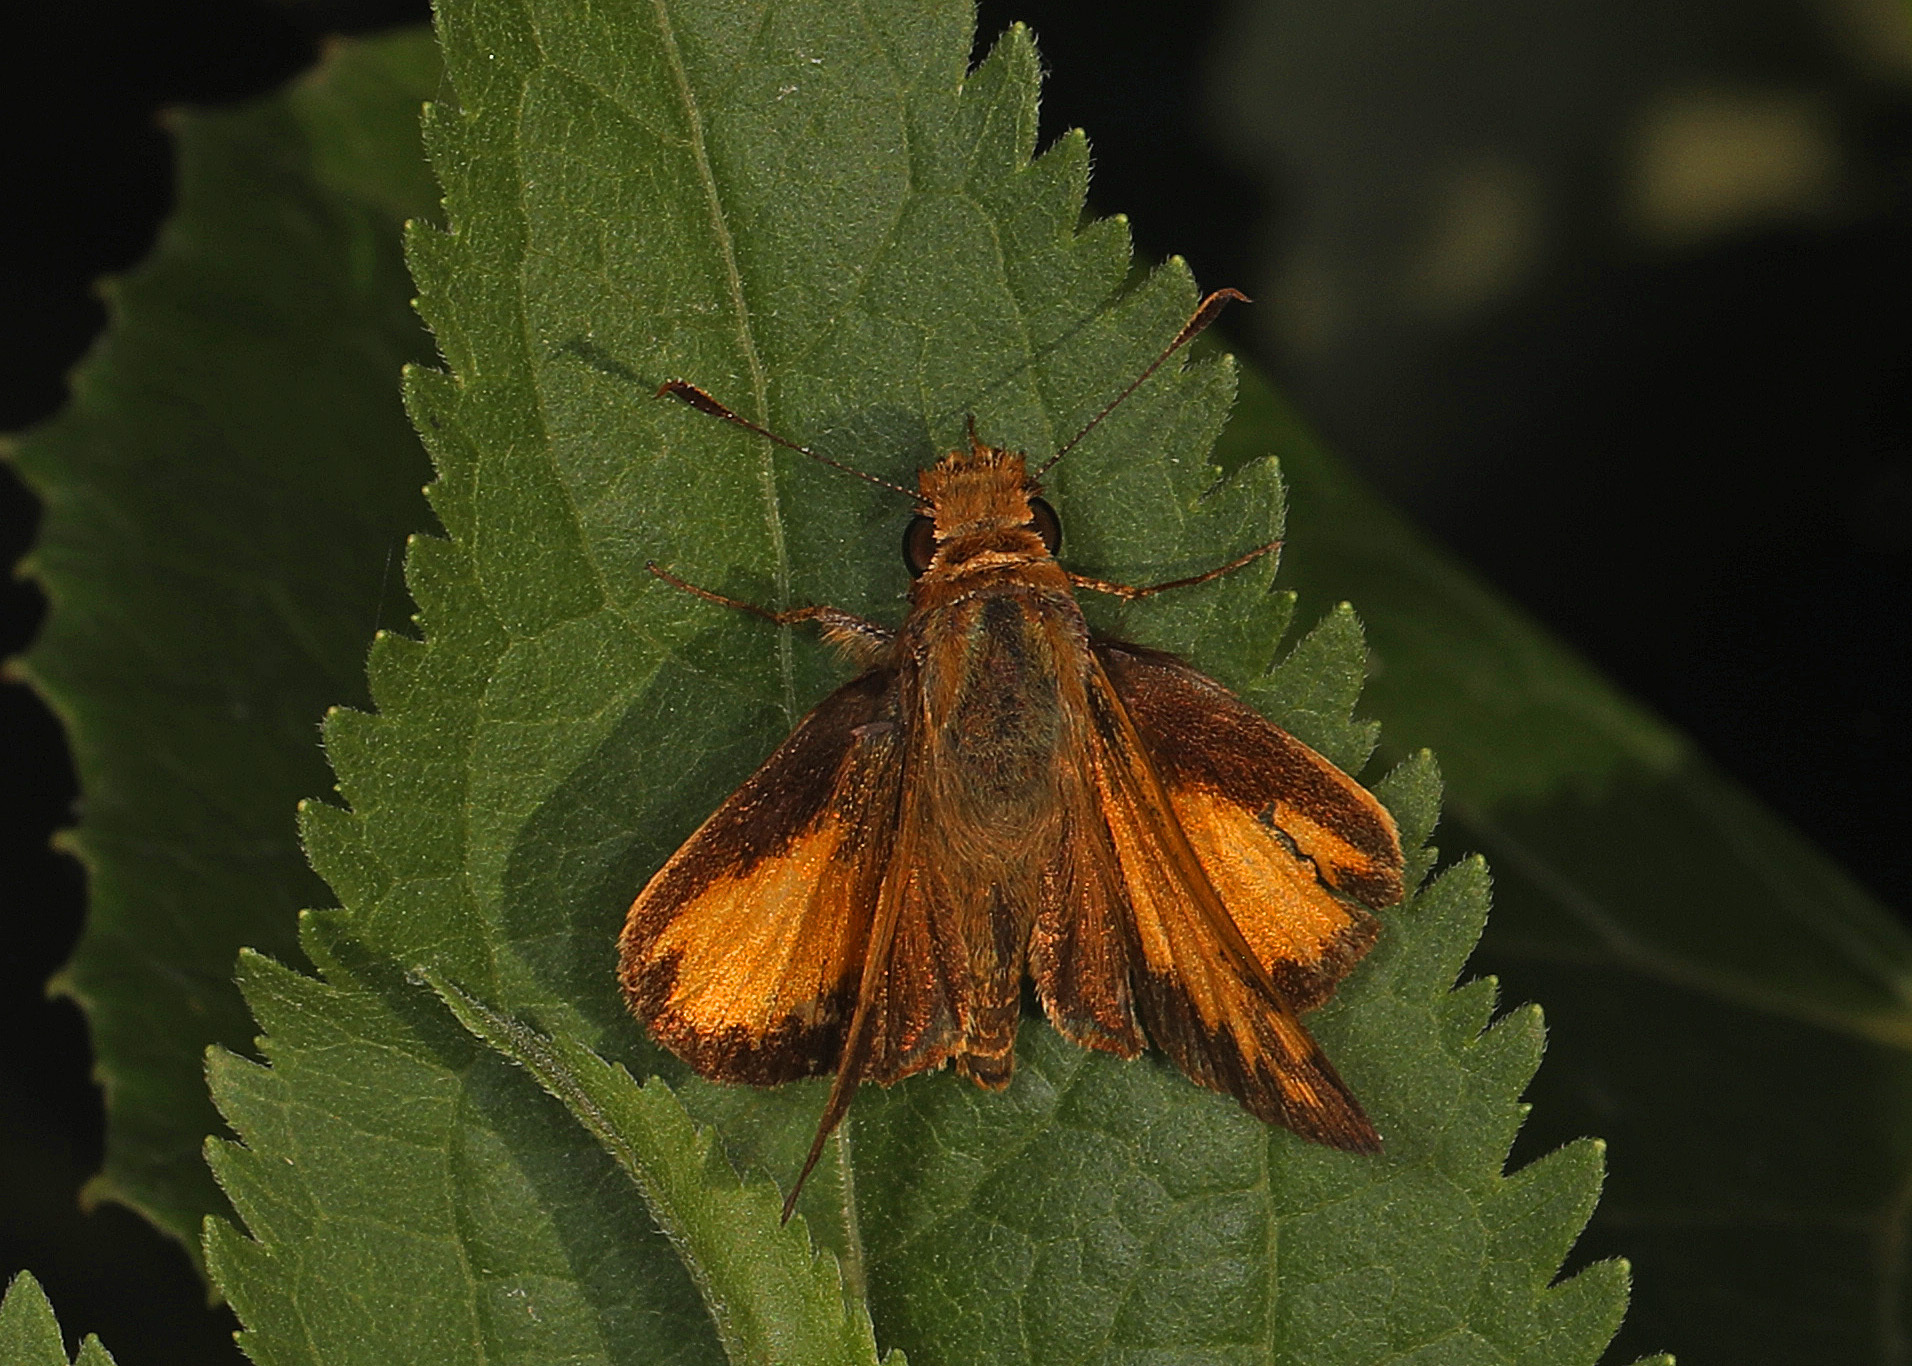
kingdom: Animalia
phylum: Arthropoda
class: Insecta
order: Lepidoptera
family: Hesperiidae
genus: Lon
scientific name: Lon zabulon
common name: Zabulon skipper
